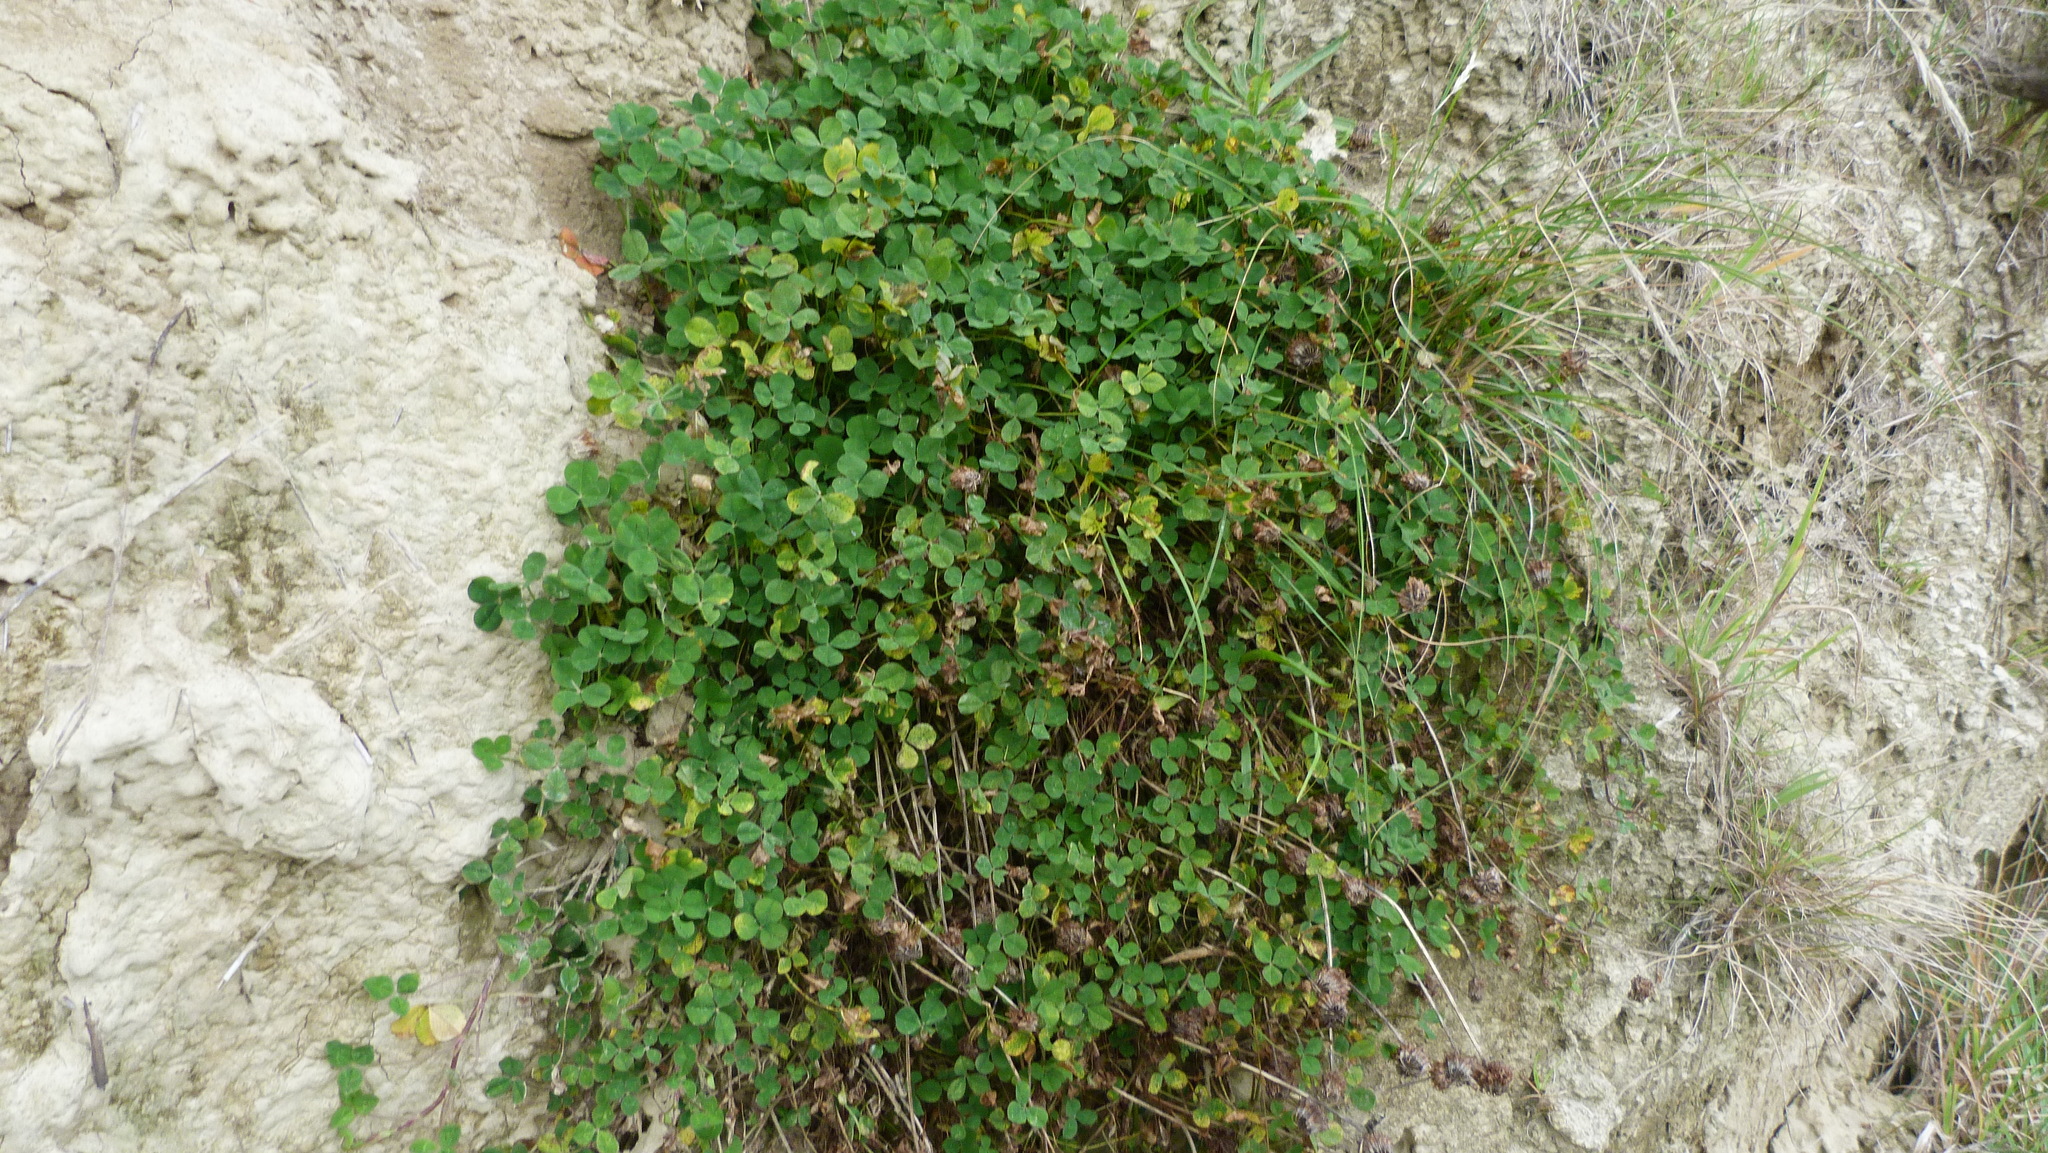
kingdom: Plantae
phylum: Tracheophyta
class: Magnoliopsida
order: Fabales
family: Fabaceae
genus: Trifolium
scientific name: Trifolium repens
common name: White clover
